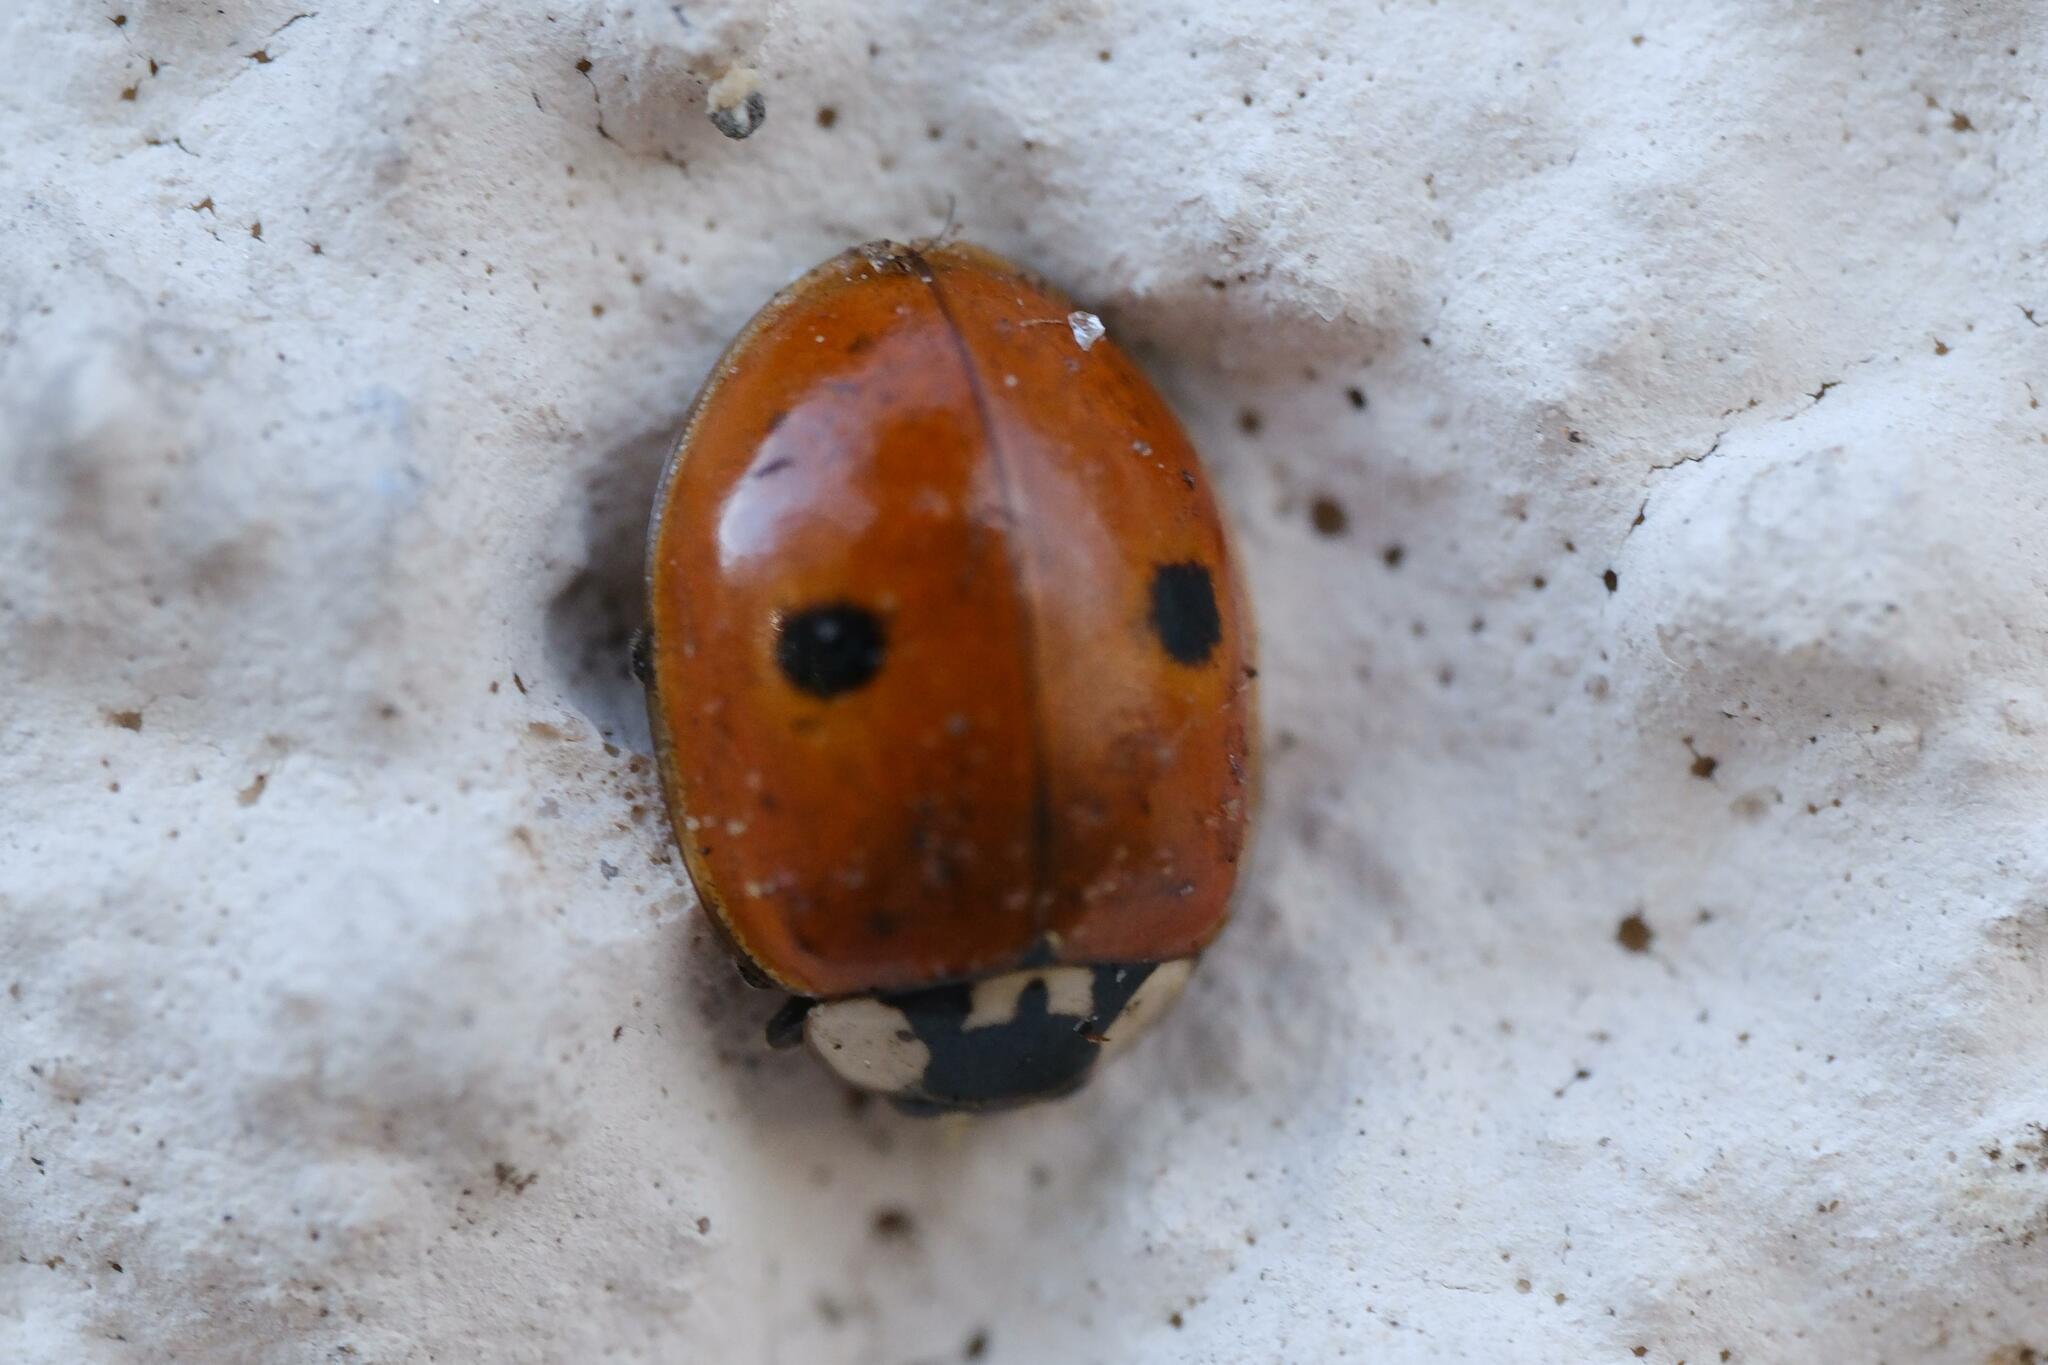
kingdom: Animalia
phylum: Arthropoda
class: Insecta
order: Coleoptera
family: Coccinellidae
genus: Adalia
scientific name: Adalia bipunctata
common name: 2-spot ladybird
